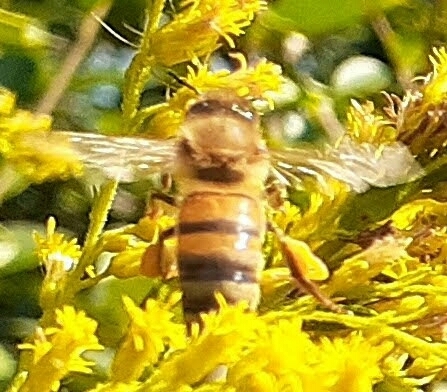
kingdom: Animalia
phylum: Arthropoda
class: Insecta
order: Hymenoptera
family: Apidae
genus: Apis
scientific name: Apis mellifera
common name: Honey bee
